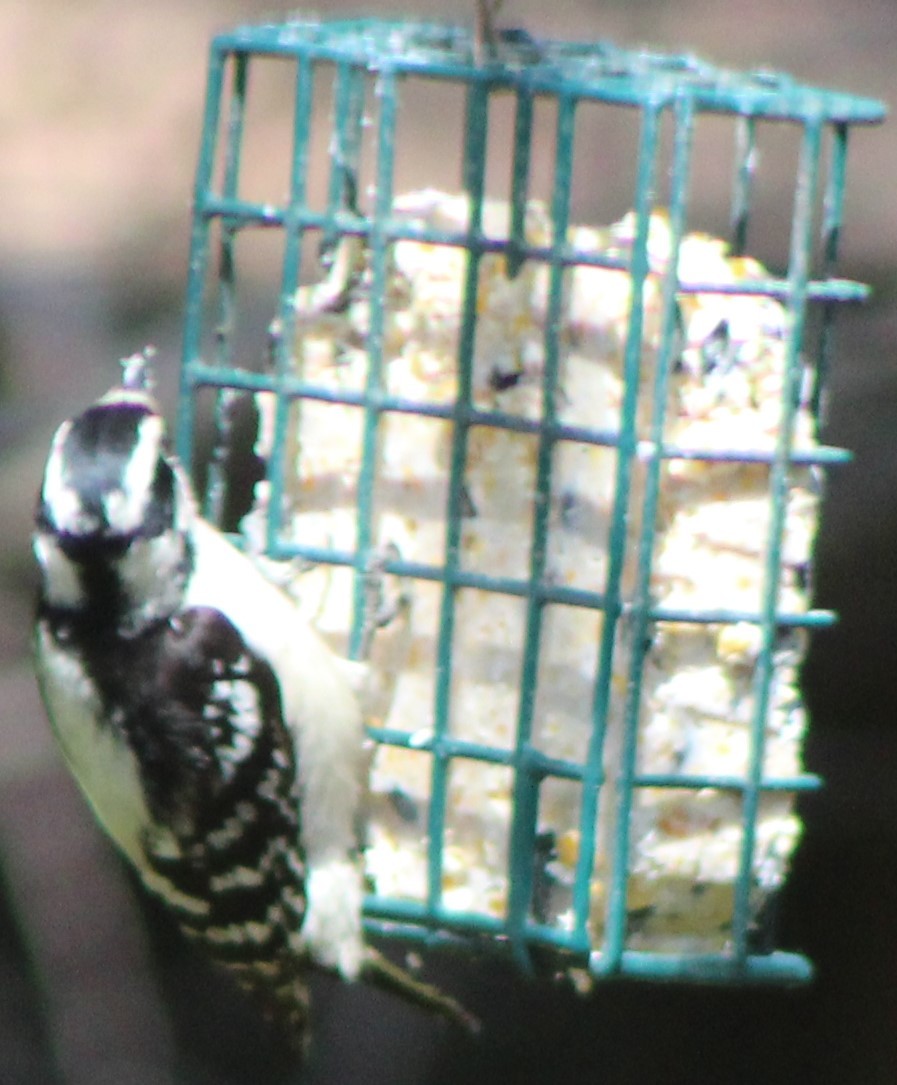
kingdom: Animalia
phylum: Chordata
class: Aves
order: Piciformes
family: Picidae
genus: Dryobates
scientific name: Dryobates pubescens
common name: Downy woodpecker
